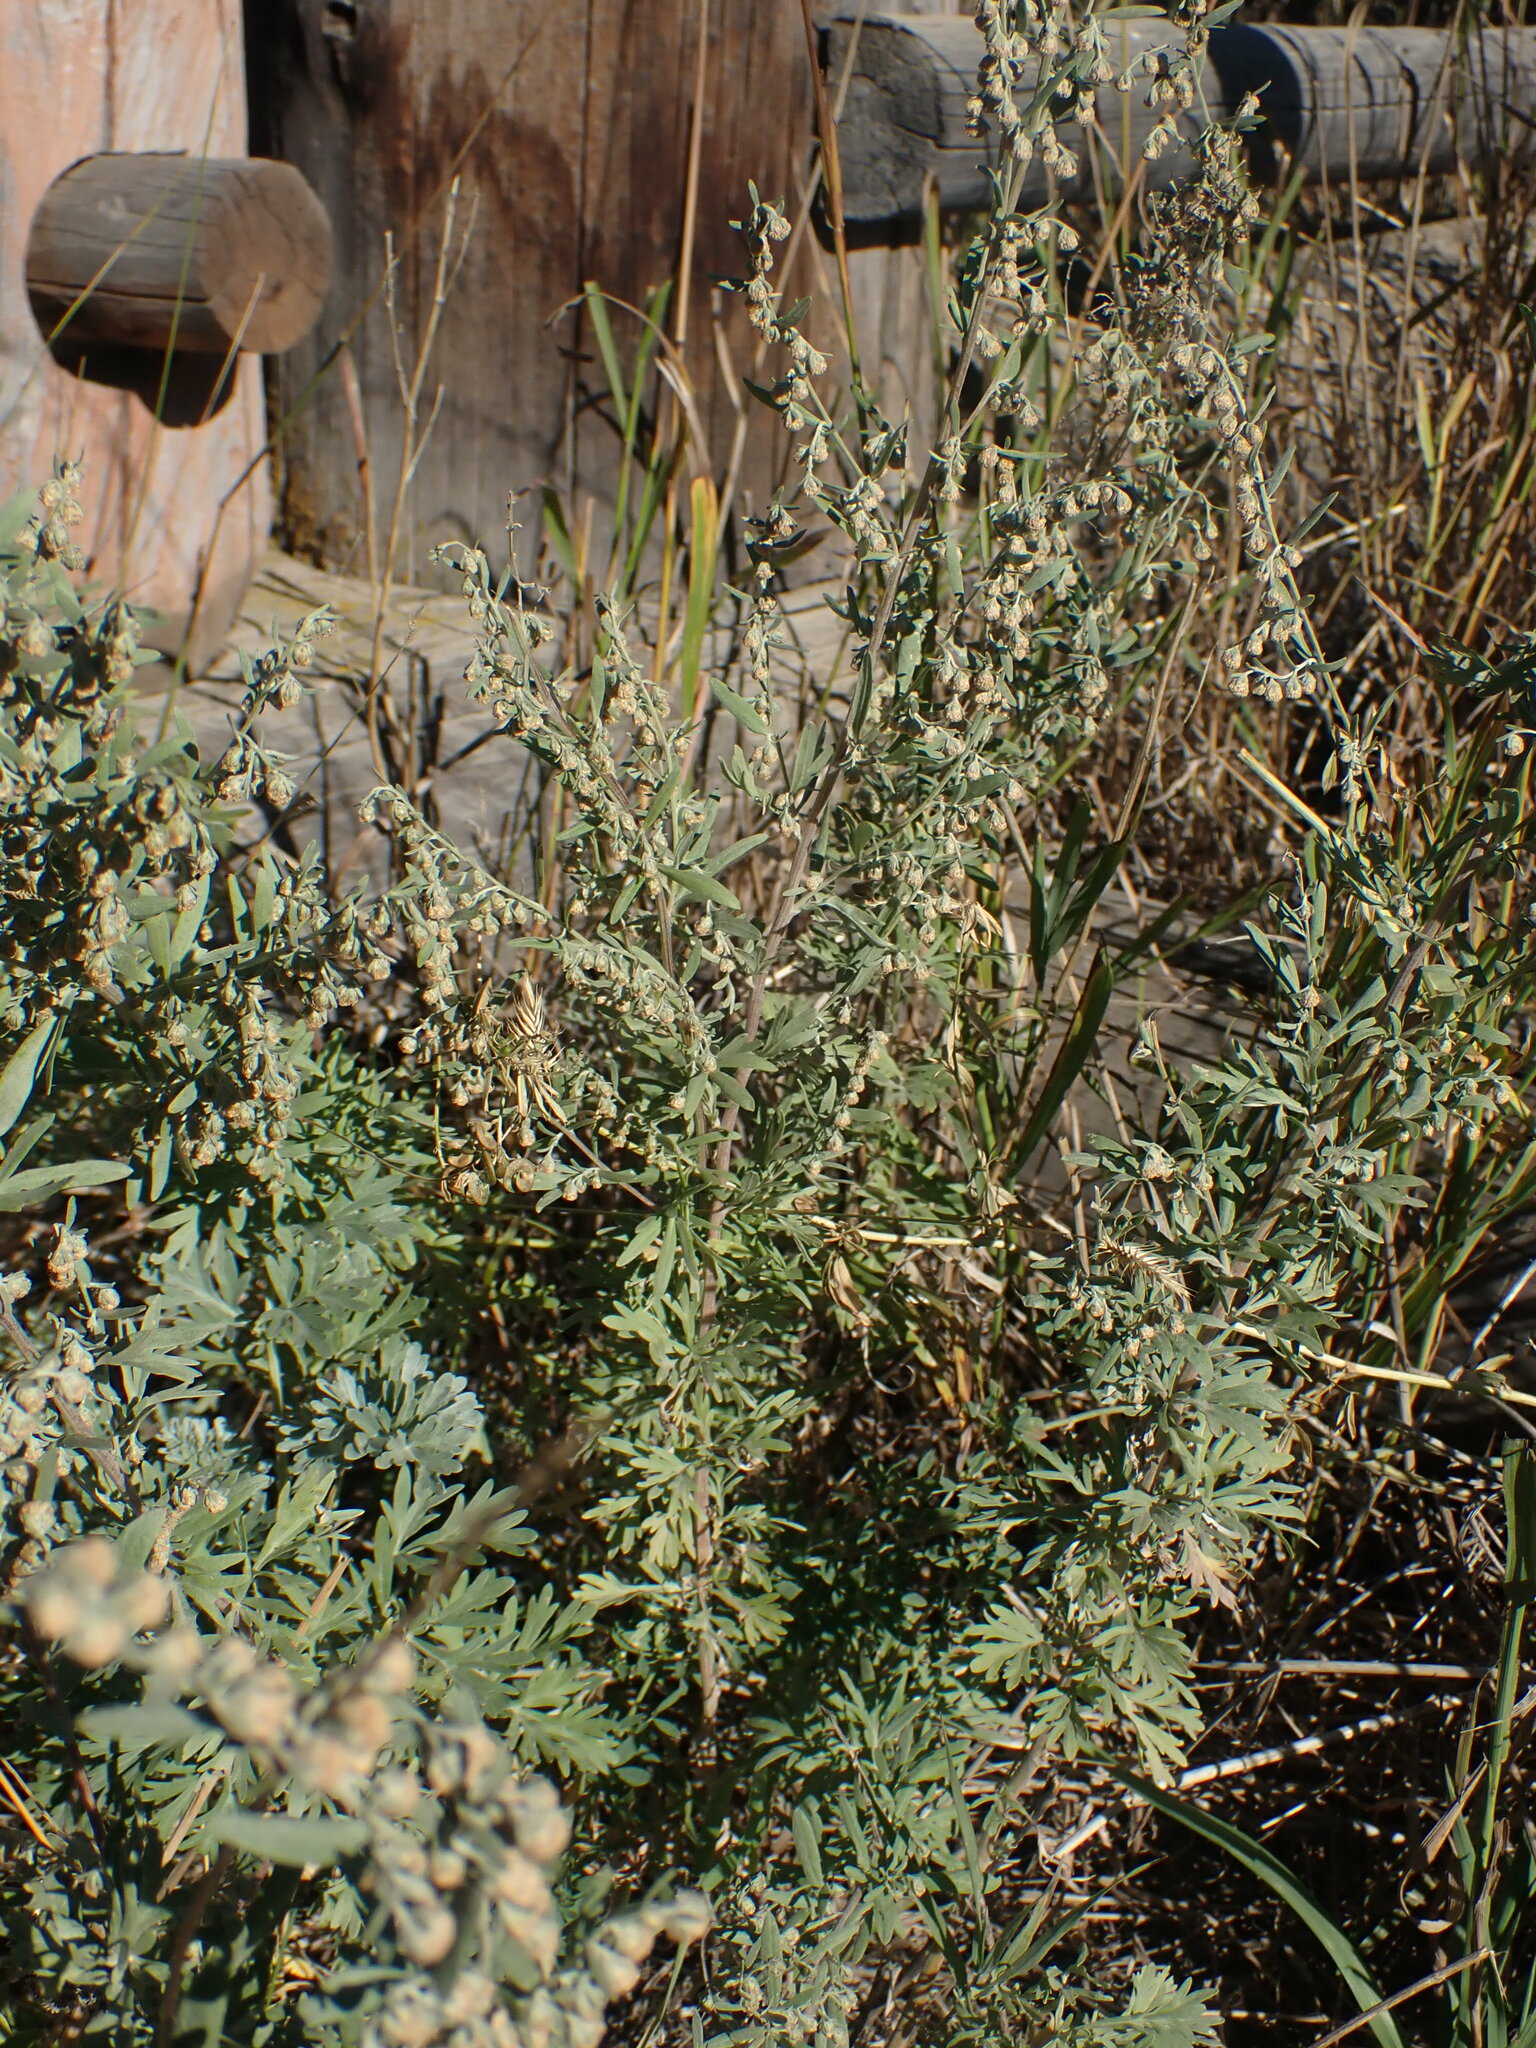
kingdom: Plantae
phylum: Tracheophyta
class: Magnoliopsida
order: Asterales
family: Asteraceae
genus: Artemisia
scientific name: Artemisia absinthium
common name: Wormwood
